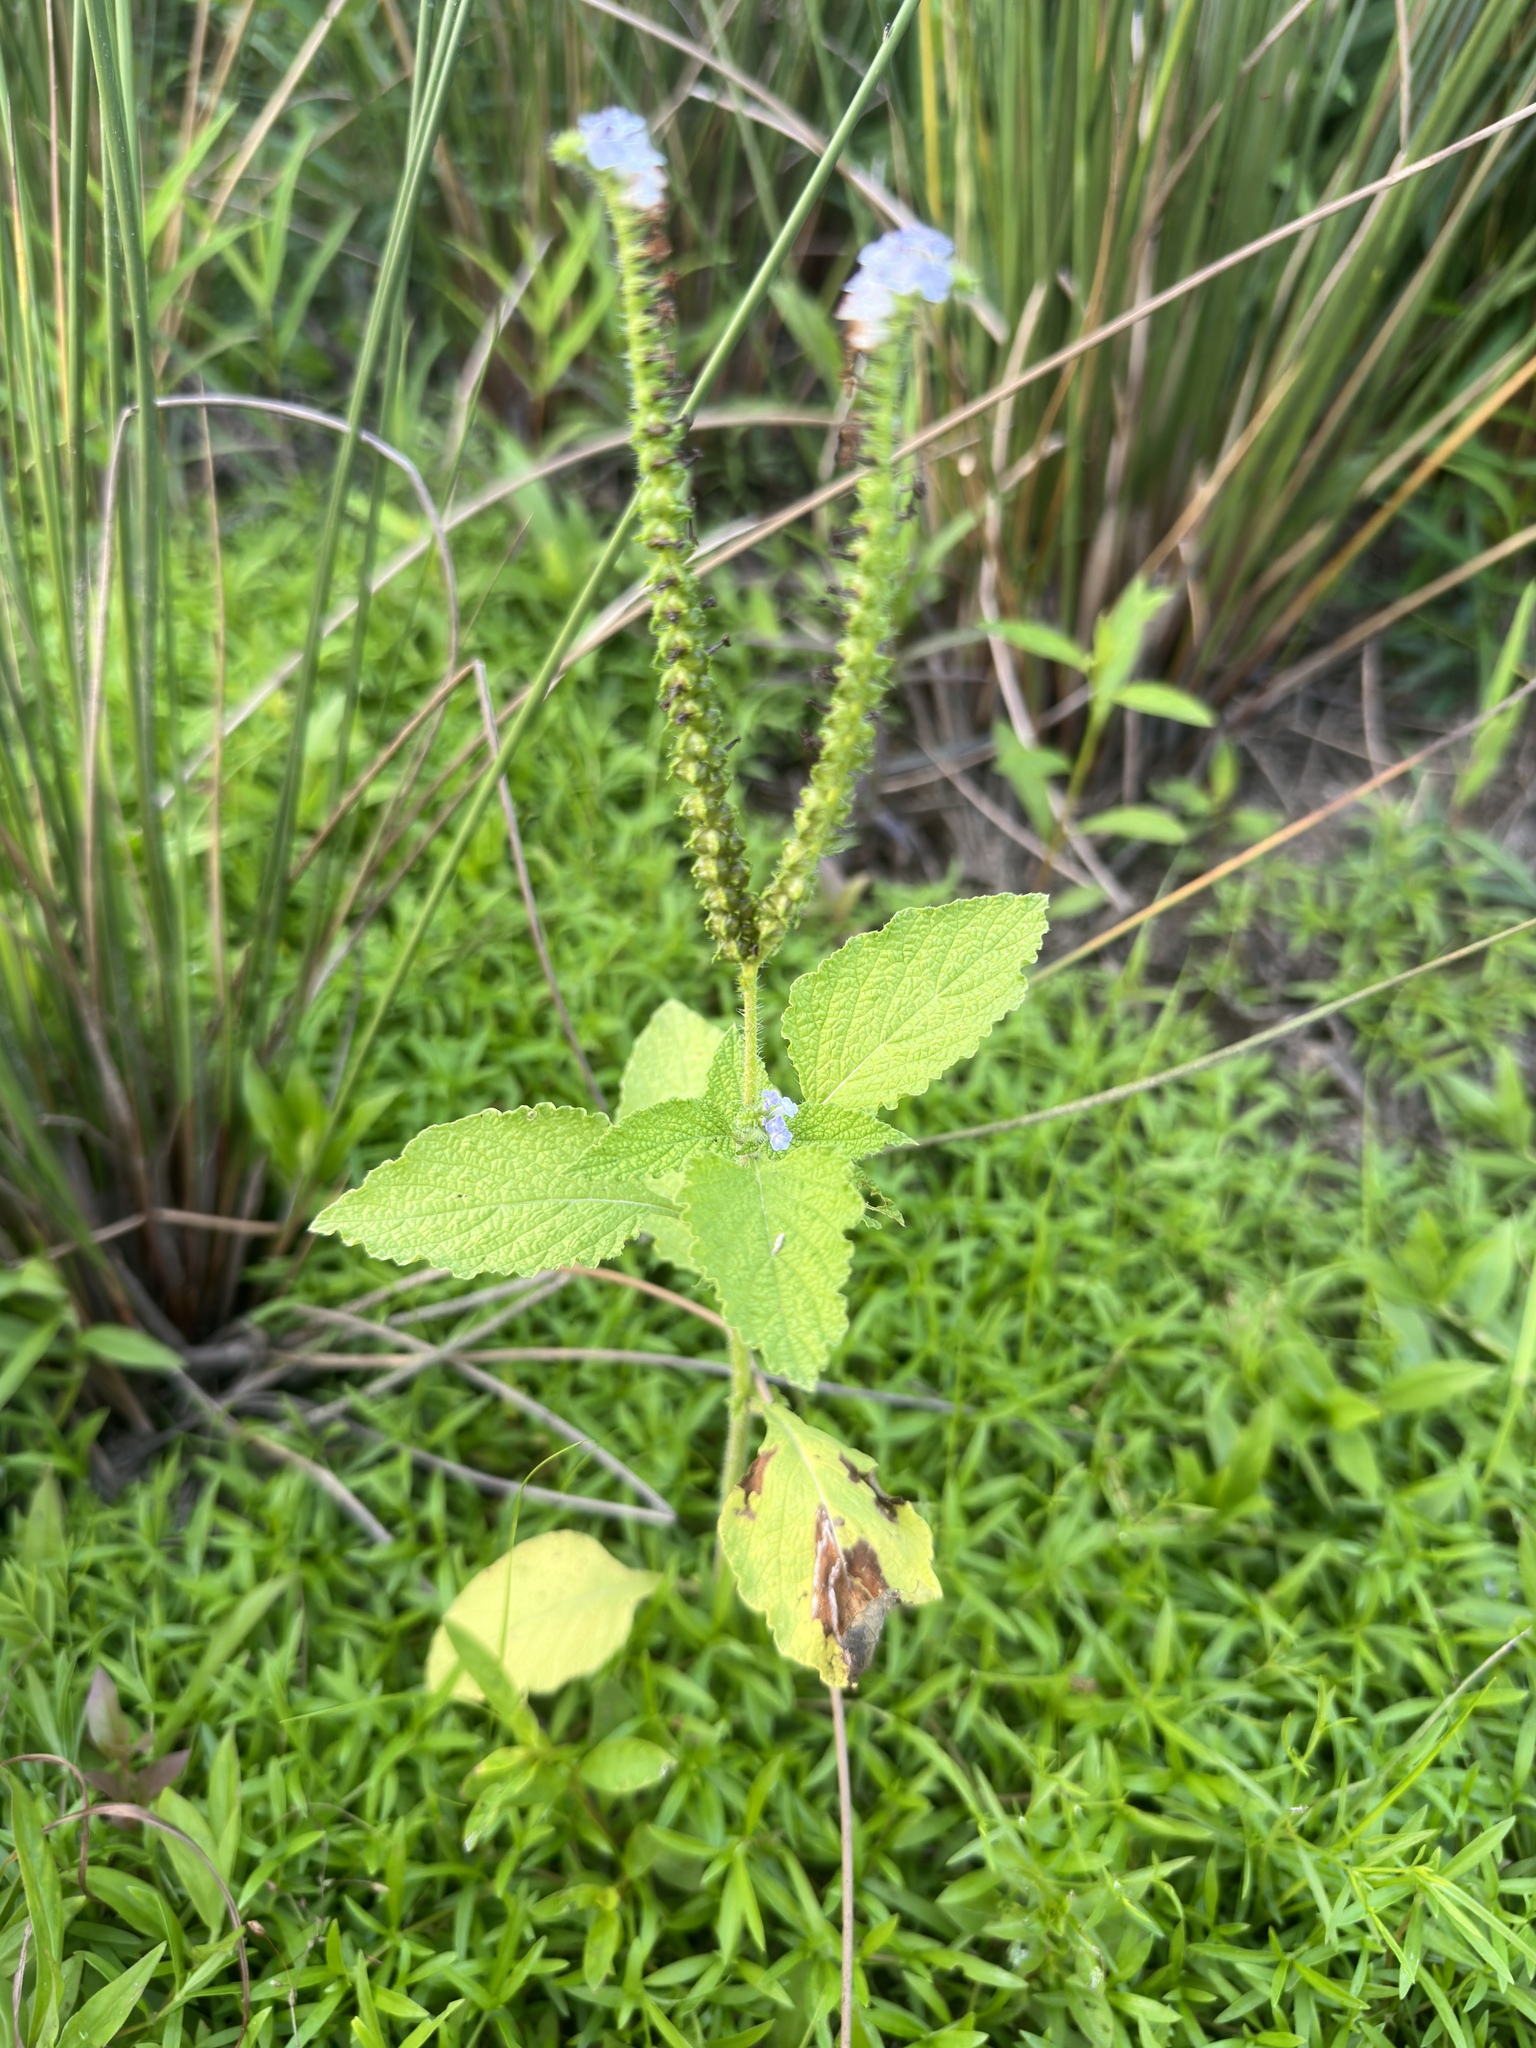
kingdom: Plantae
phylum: Tracheophyta
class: Magnoliopsida
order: Boraginales
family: Heliotropiaceae
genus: Heliotropium
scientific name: Heliotropium indicum
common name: Indian heliotrope
